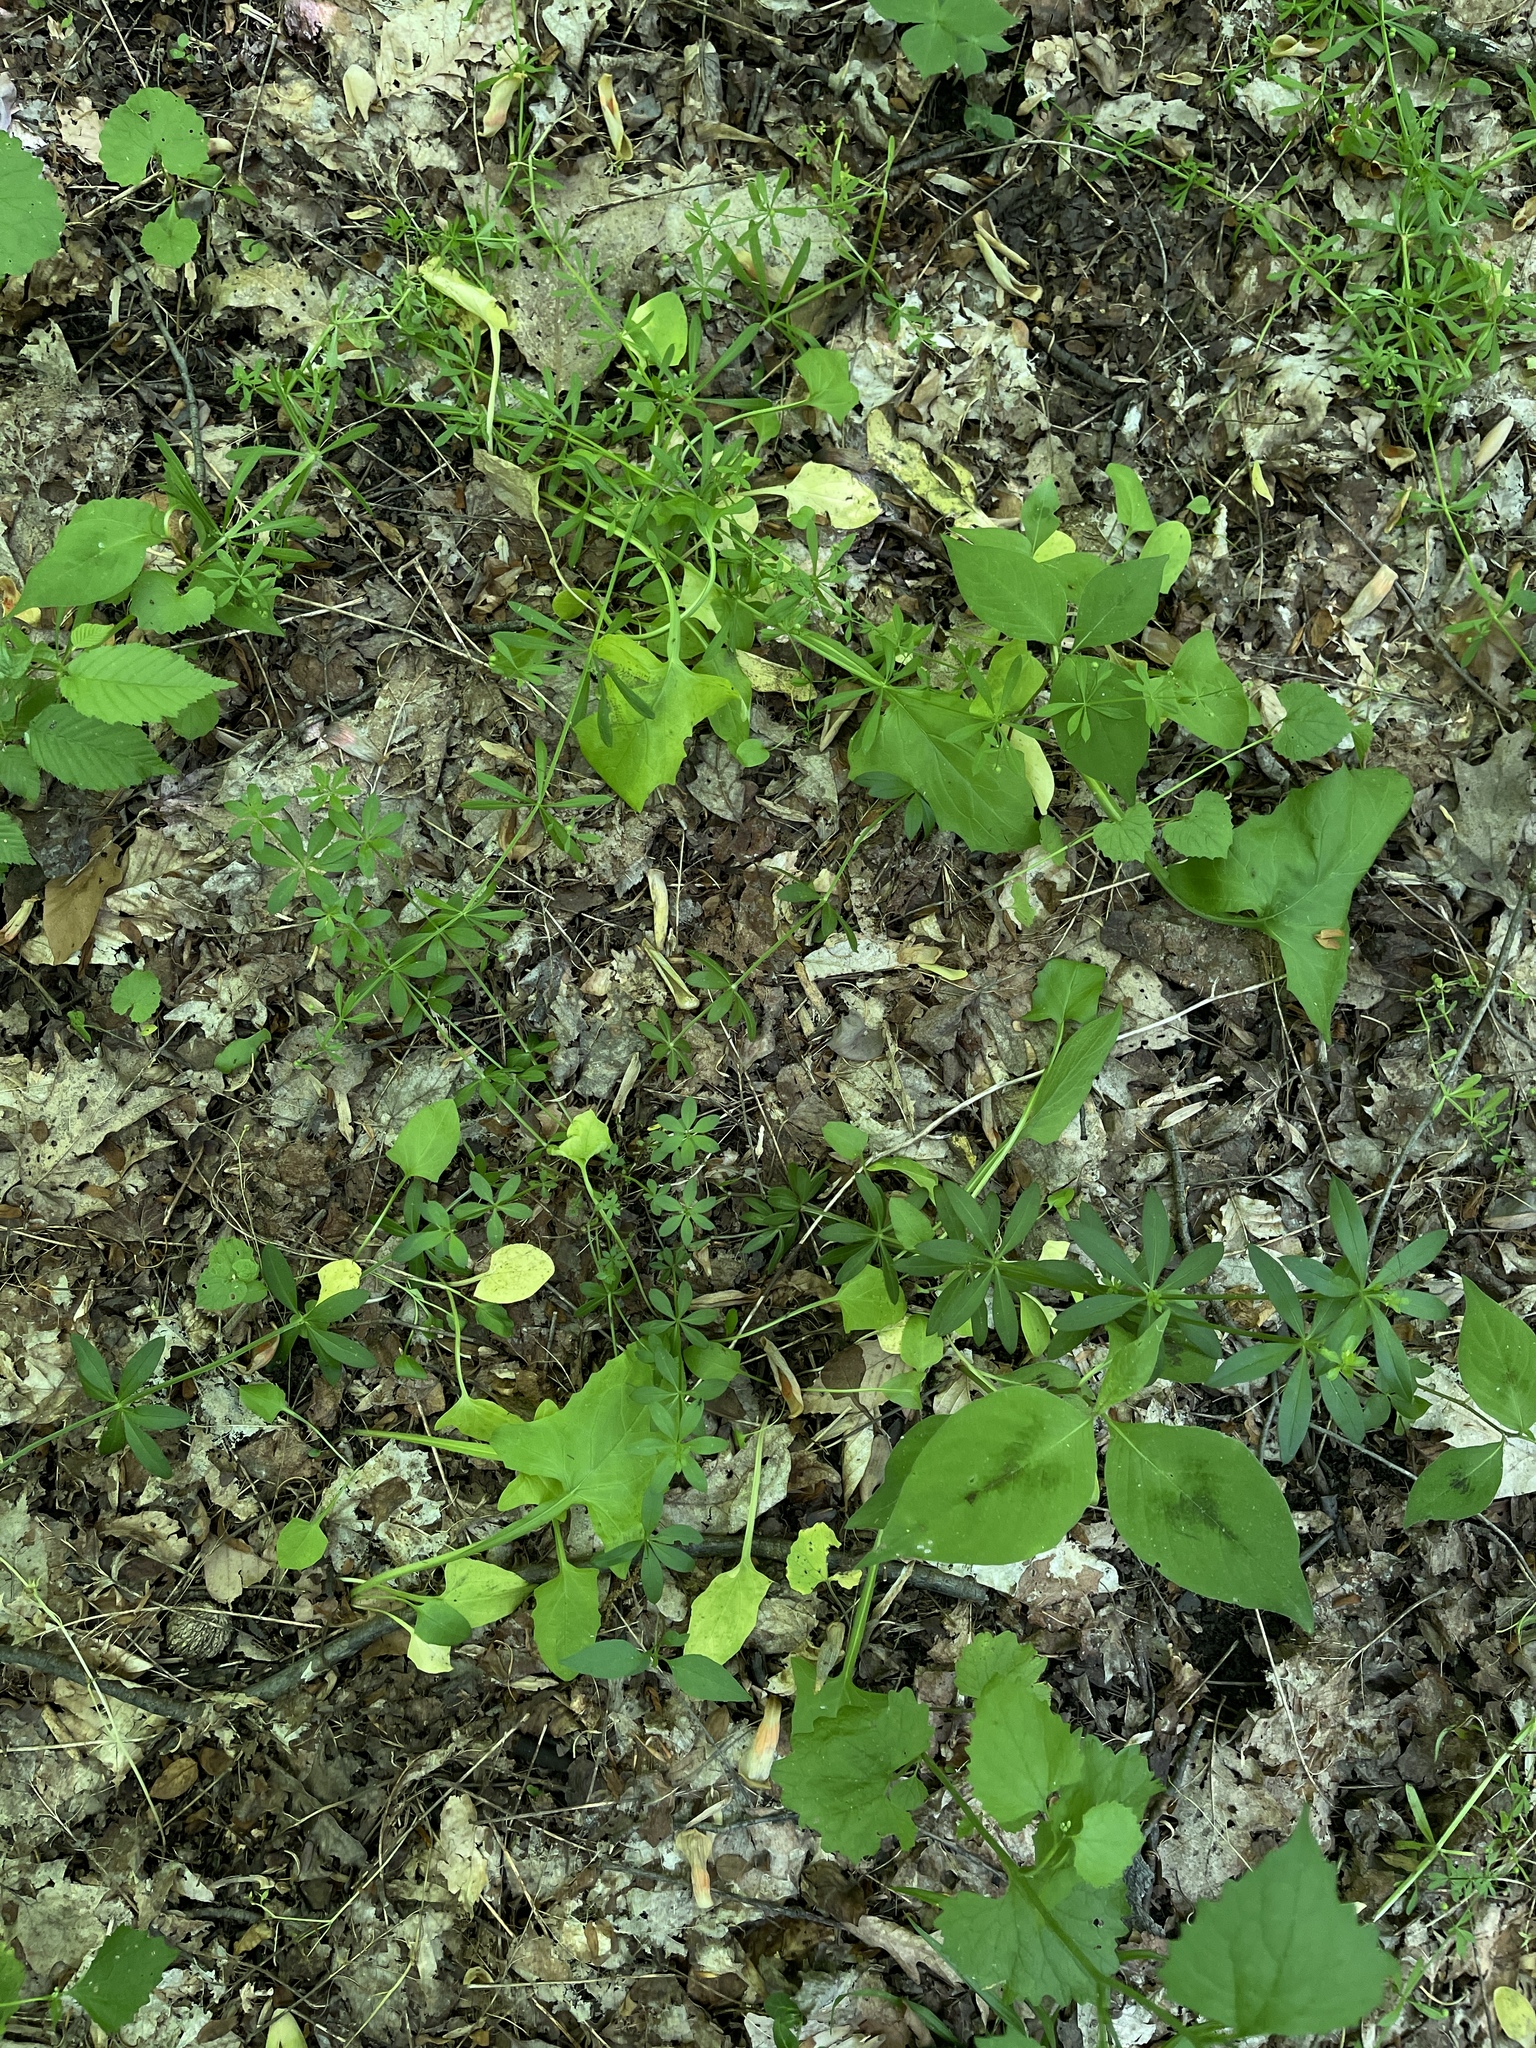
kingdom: Plantae
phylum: Tracheophyta
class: Magnoliopsida
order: Asterales
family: Asteraceae
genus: Nabalus
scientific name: Nabalus crepidineus
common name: Nodding rattlesnakeroot
